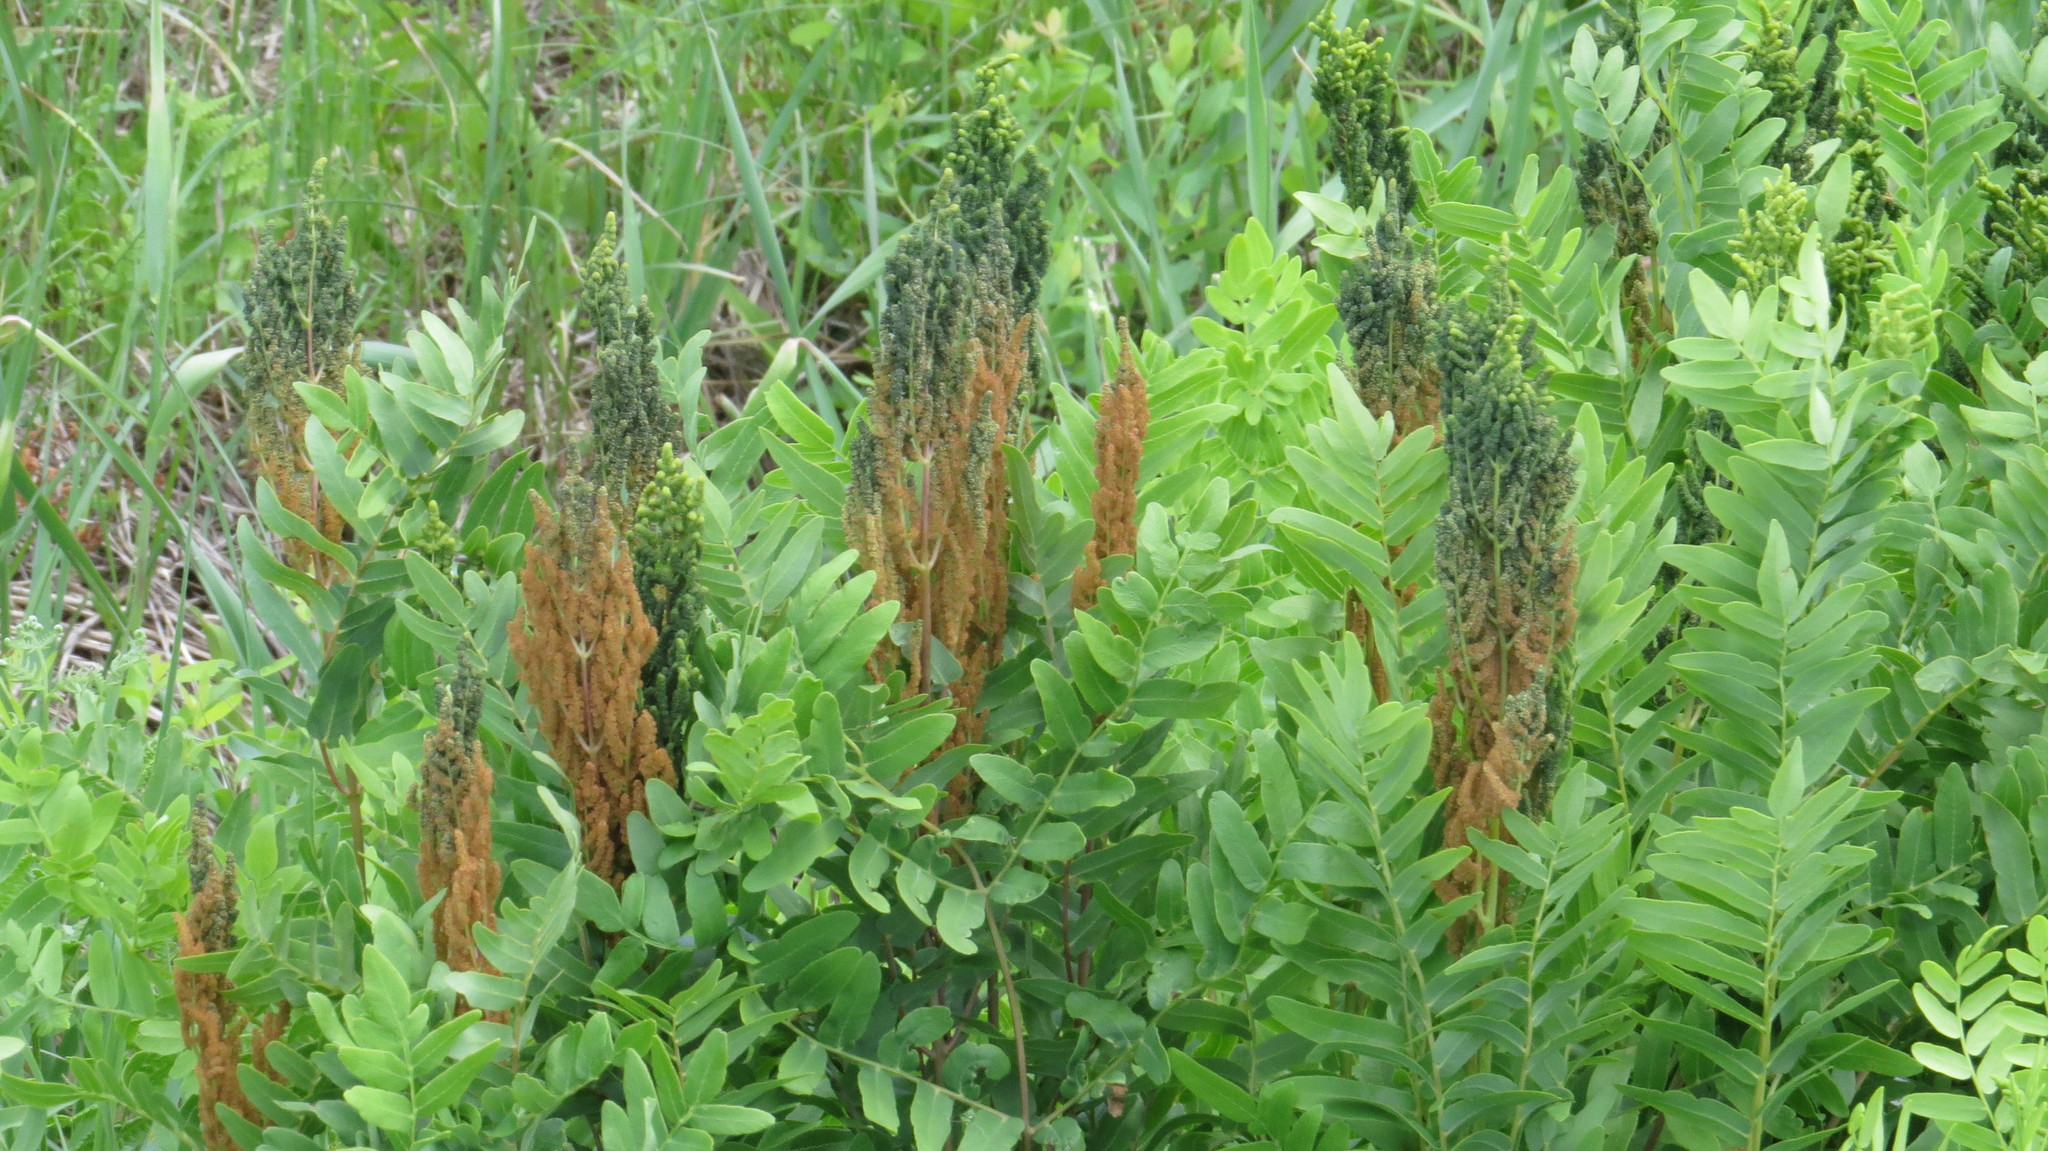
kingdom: Plantae
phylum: Tracheophyta
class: Polypodiopsida
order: Osmundales
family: Osmundaceae
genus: Osmunda
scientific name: Osmunda spectabilis
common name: American royal fern
